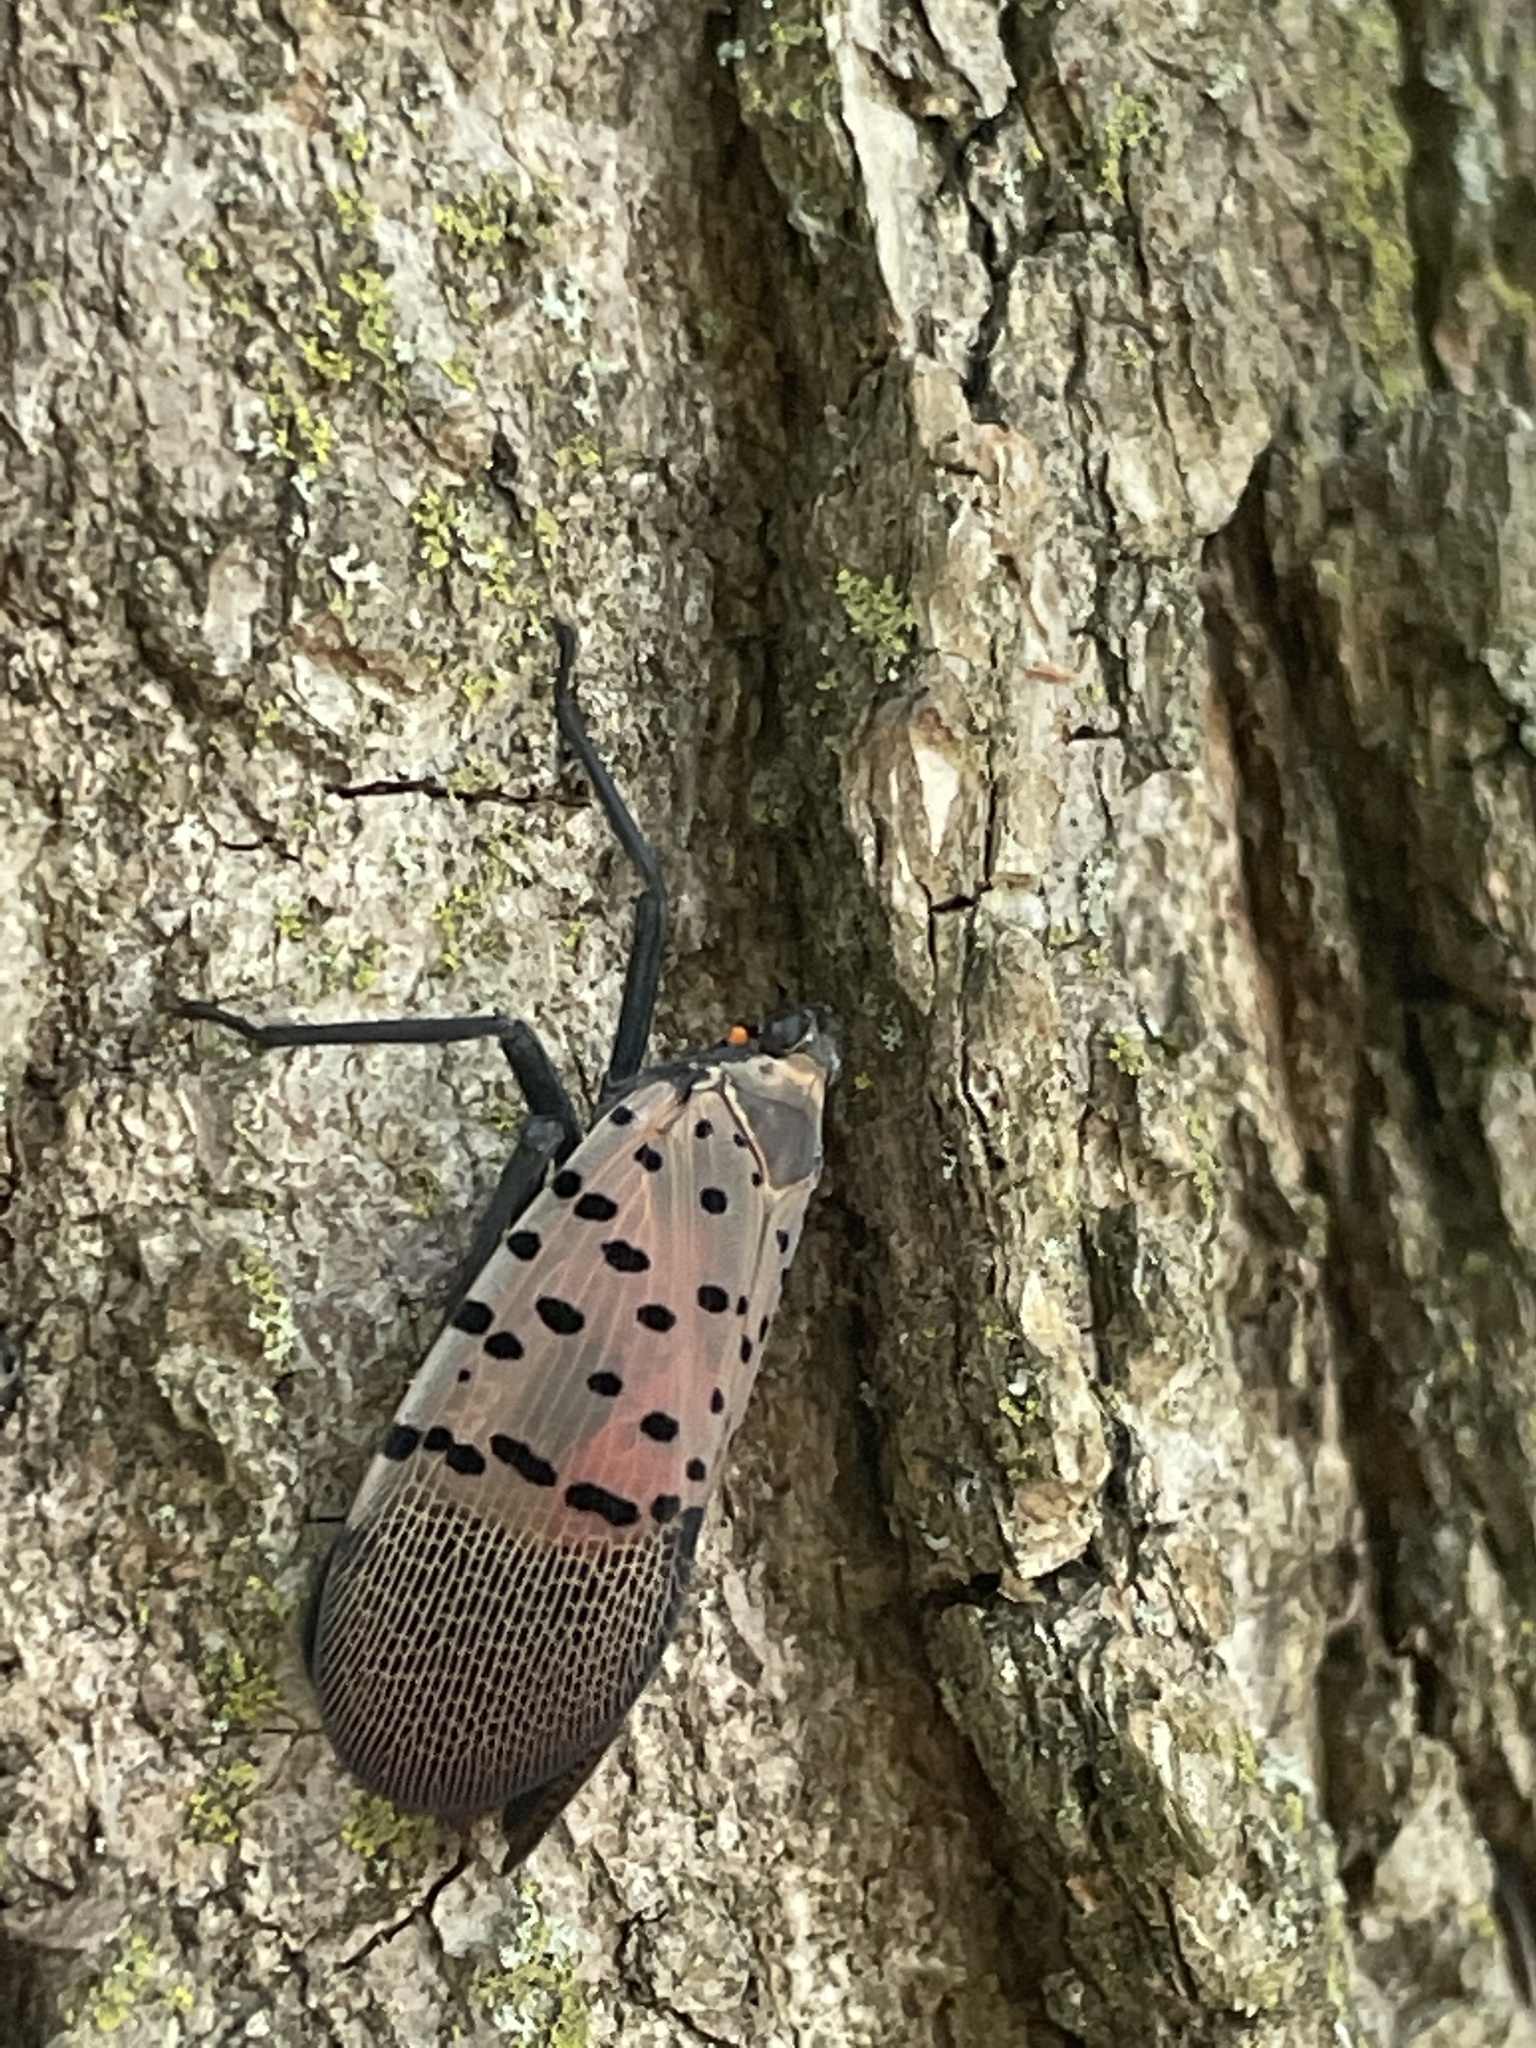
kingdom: Animalia
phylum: Arthropoda
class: Insecta
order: Hemiptera
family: Fulgoridae
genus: Lycorma
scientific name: Lycorma delicatula
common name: Spotted lanternfly
